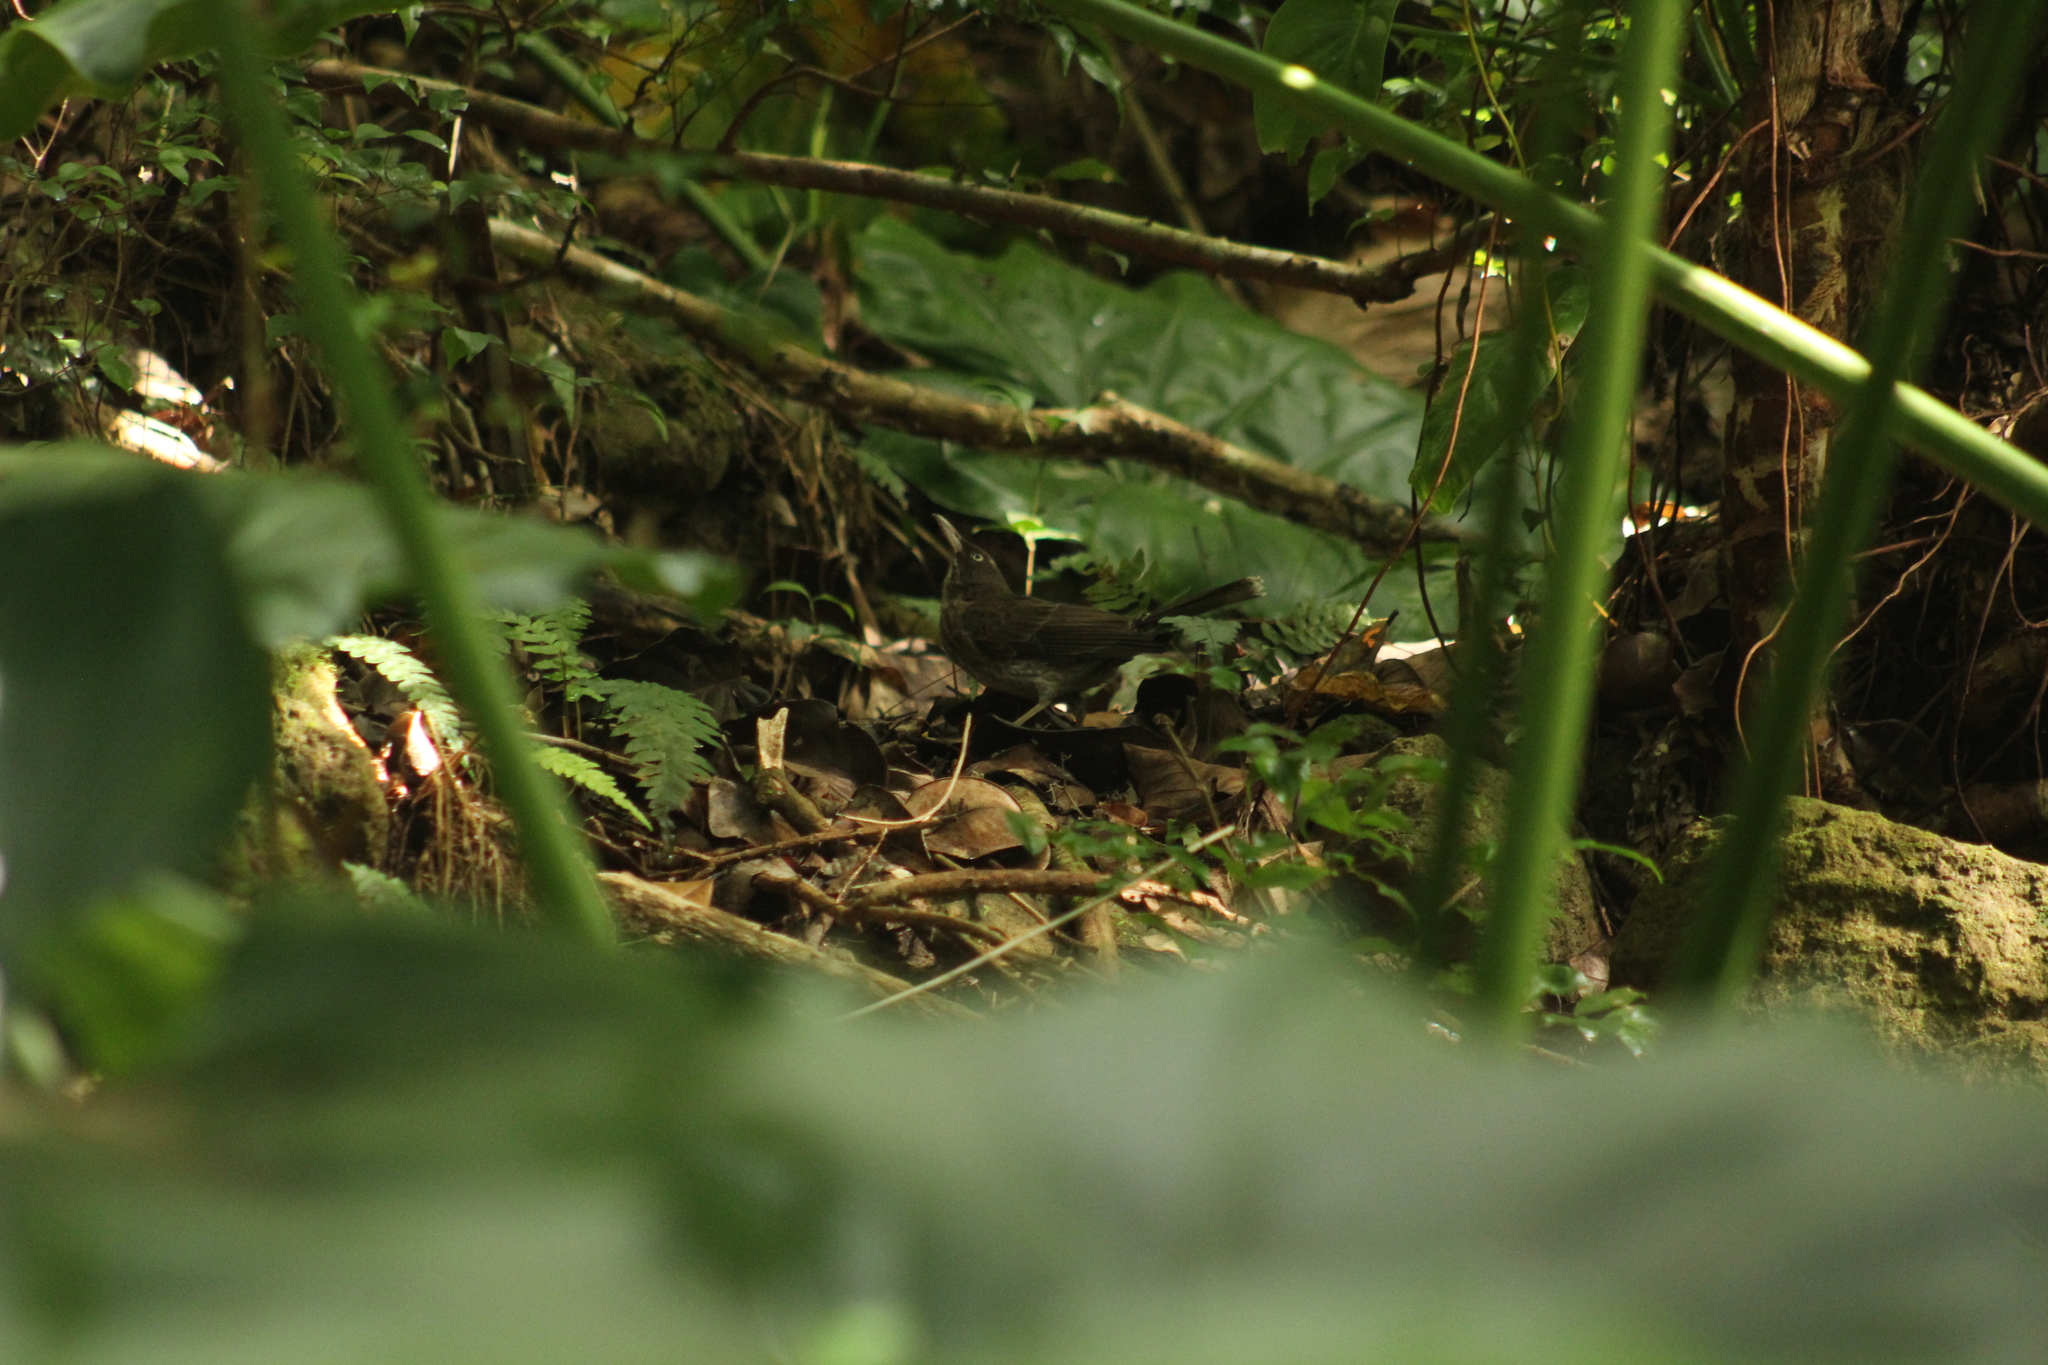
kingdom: Animalia
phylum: Chordata
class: Aves
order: Passeriformes
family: Mimidae
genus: Margarops
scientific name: Margarops fuscatus
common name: Pearly-eyed thrasher
